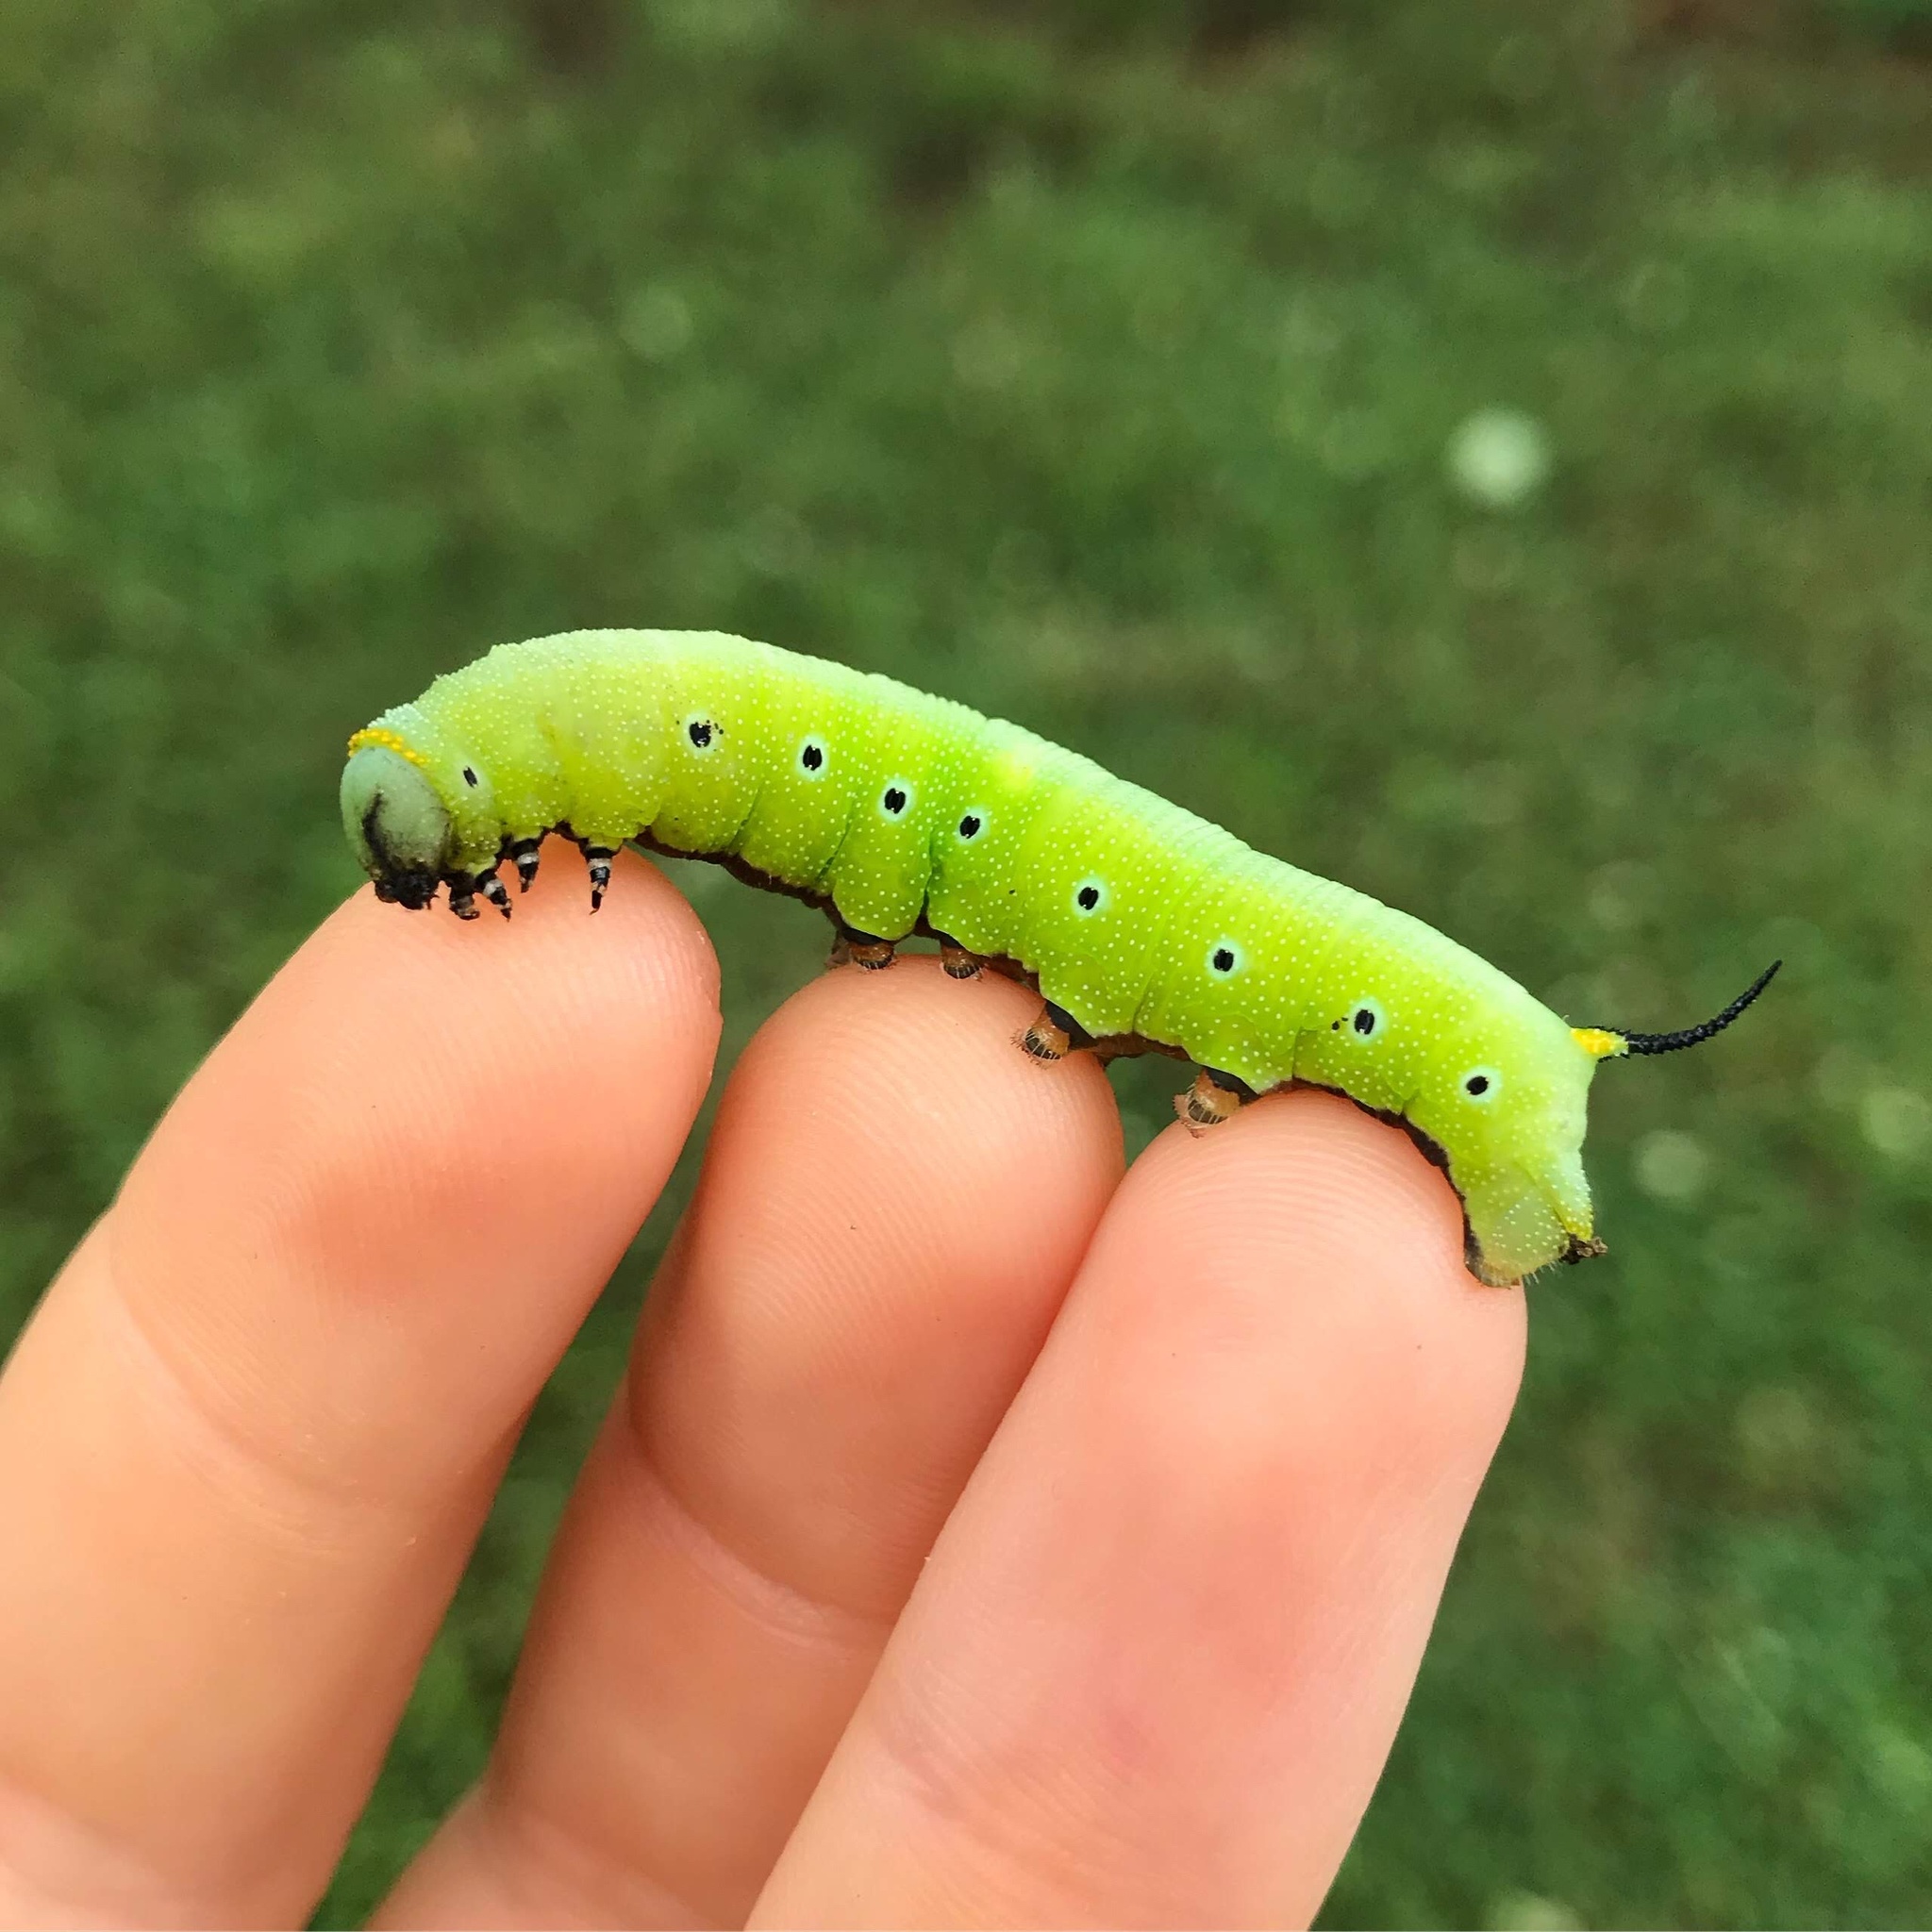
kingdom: Animalia
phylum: Arthropoda
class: Insecta
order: Lepidoptera
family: Sphingidae
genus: Hemaris
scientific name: Hemaris diffinis
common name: Bumblebee moth
